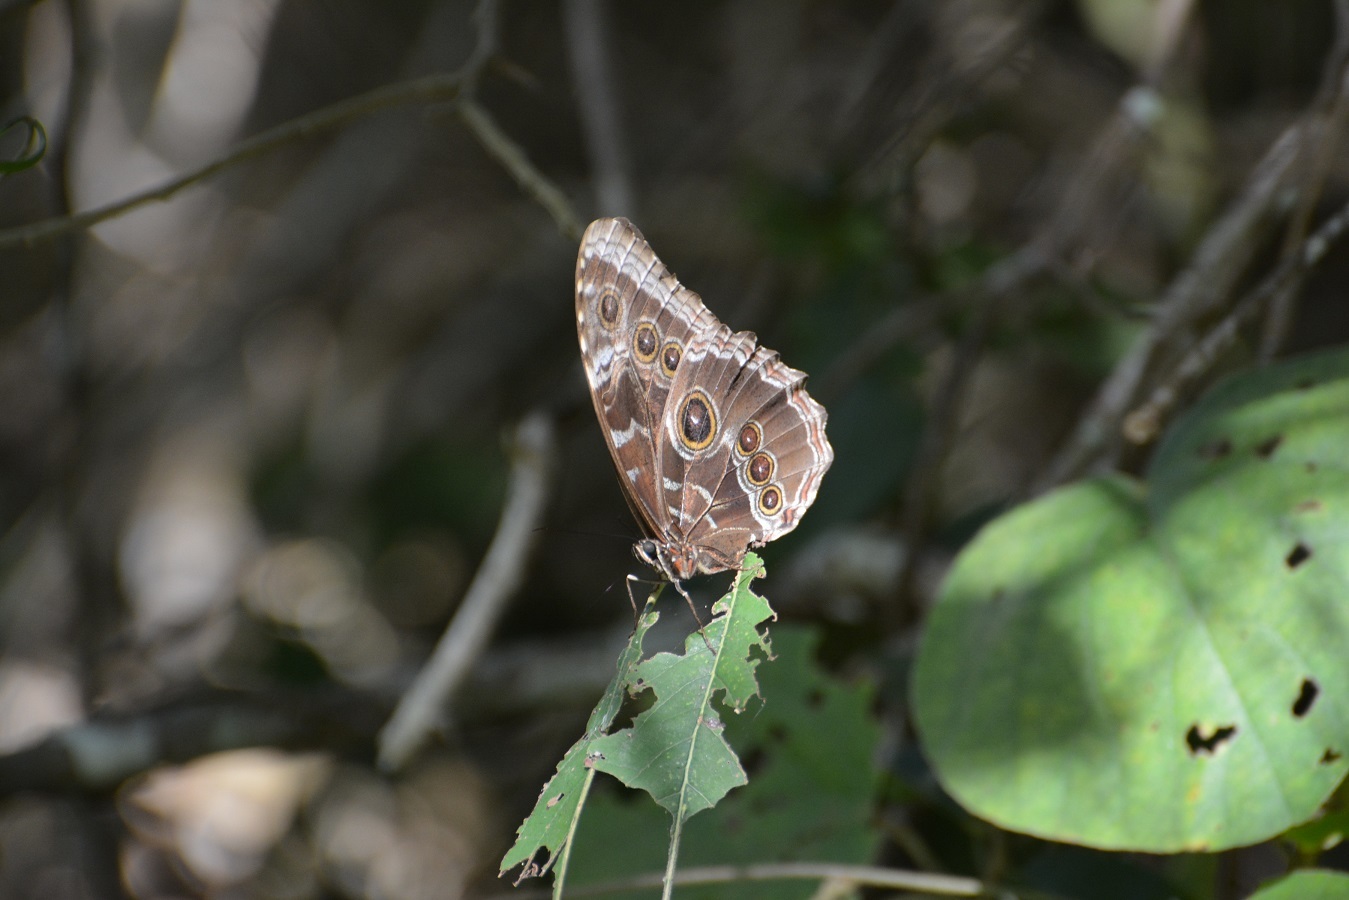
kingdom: Animalia
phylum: Arthropoda
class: Insecta
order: Lepidoptera
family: Nymphalidae
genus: Morpho
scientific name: Morpho helenor
